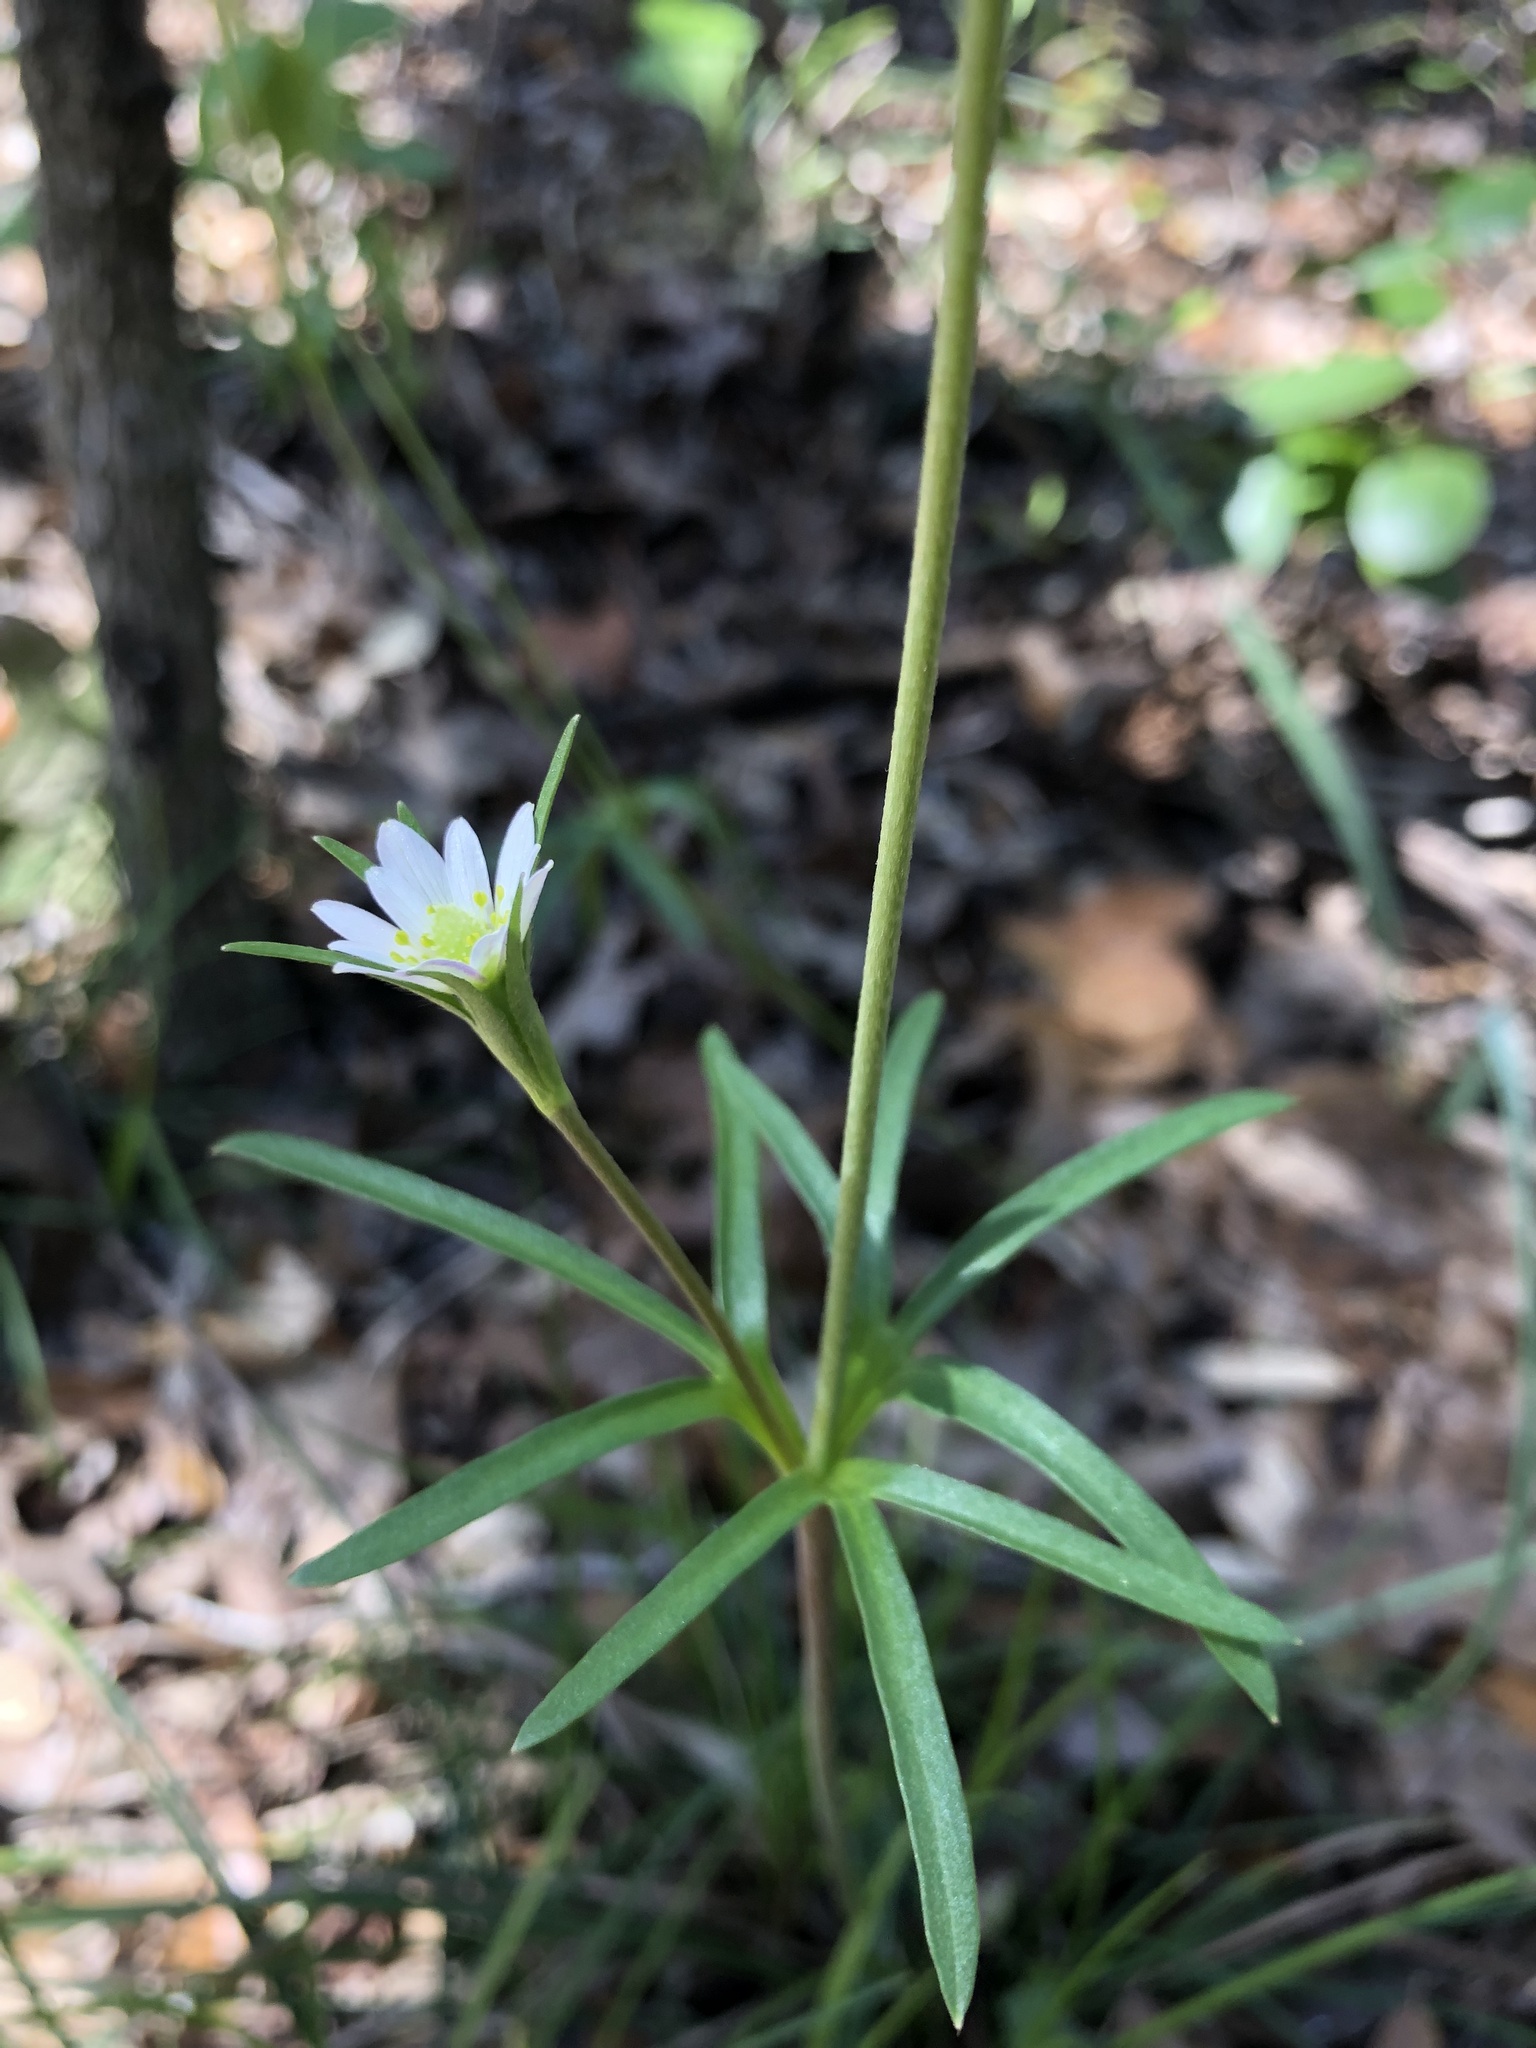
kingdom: Plantae
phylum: Tracheophyta
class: Magnoliopsida
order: Ranunculales
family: Ranunculaceae
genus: Anemone
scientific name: Anemone edwardsiana
